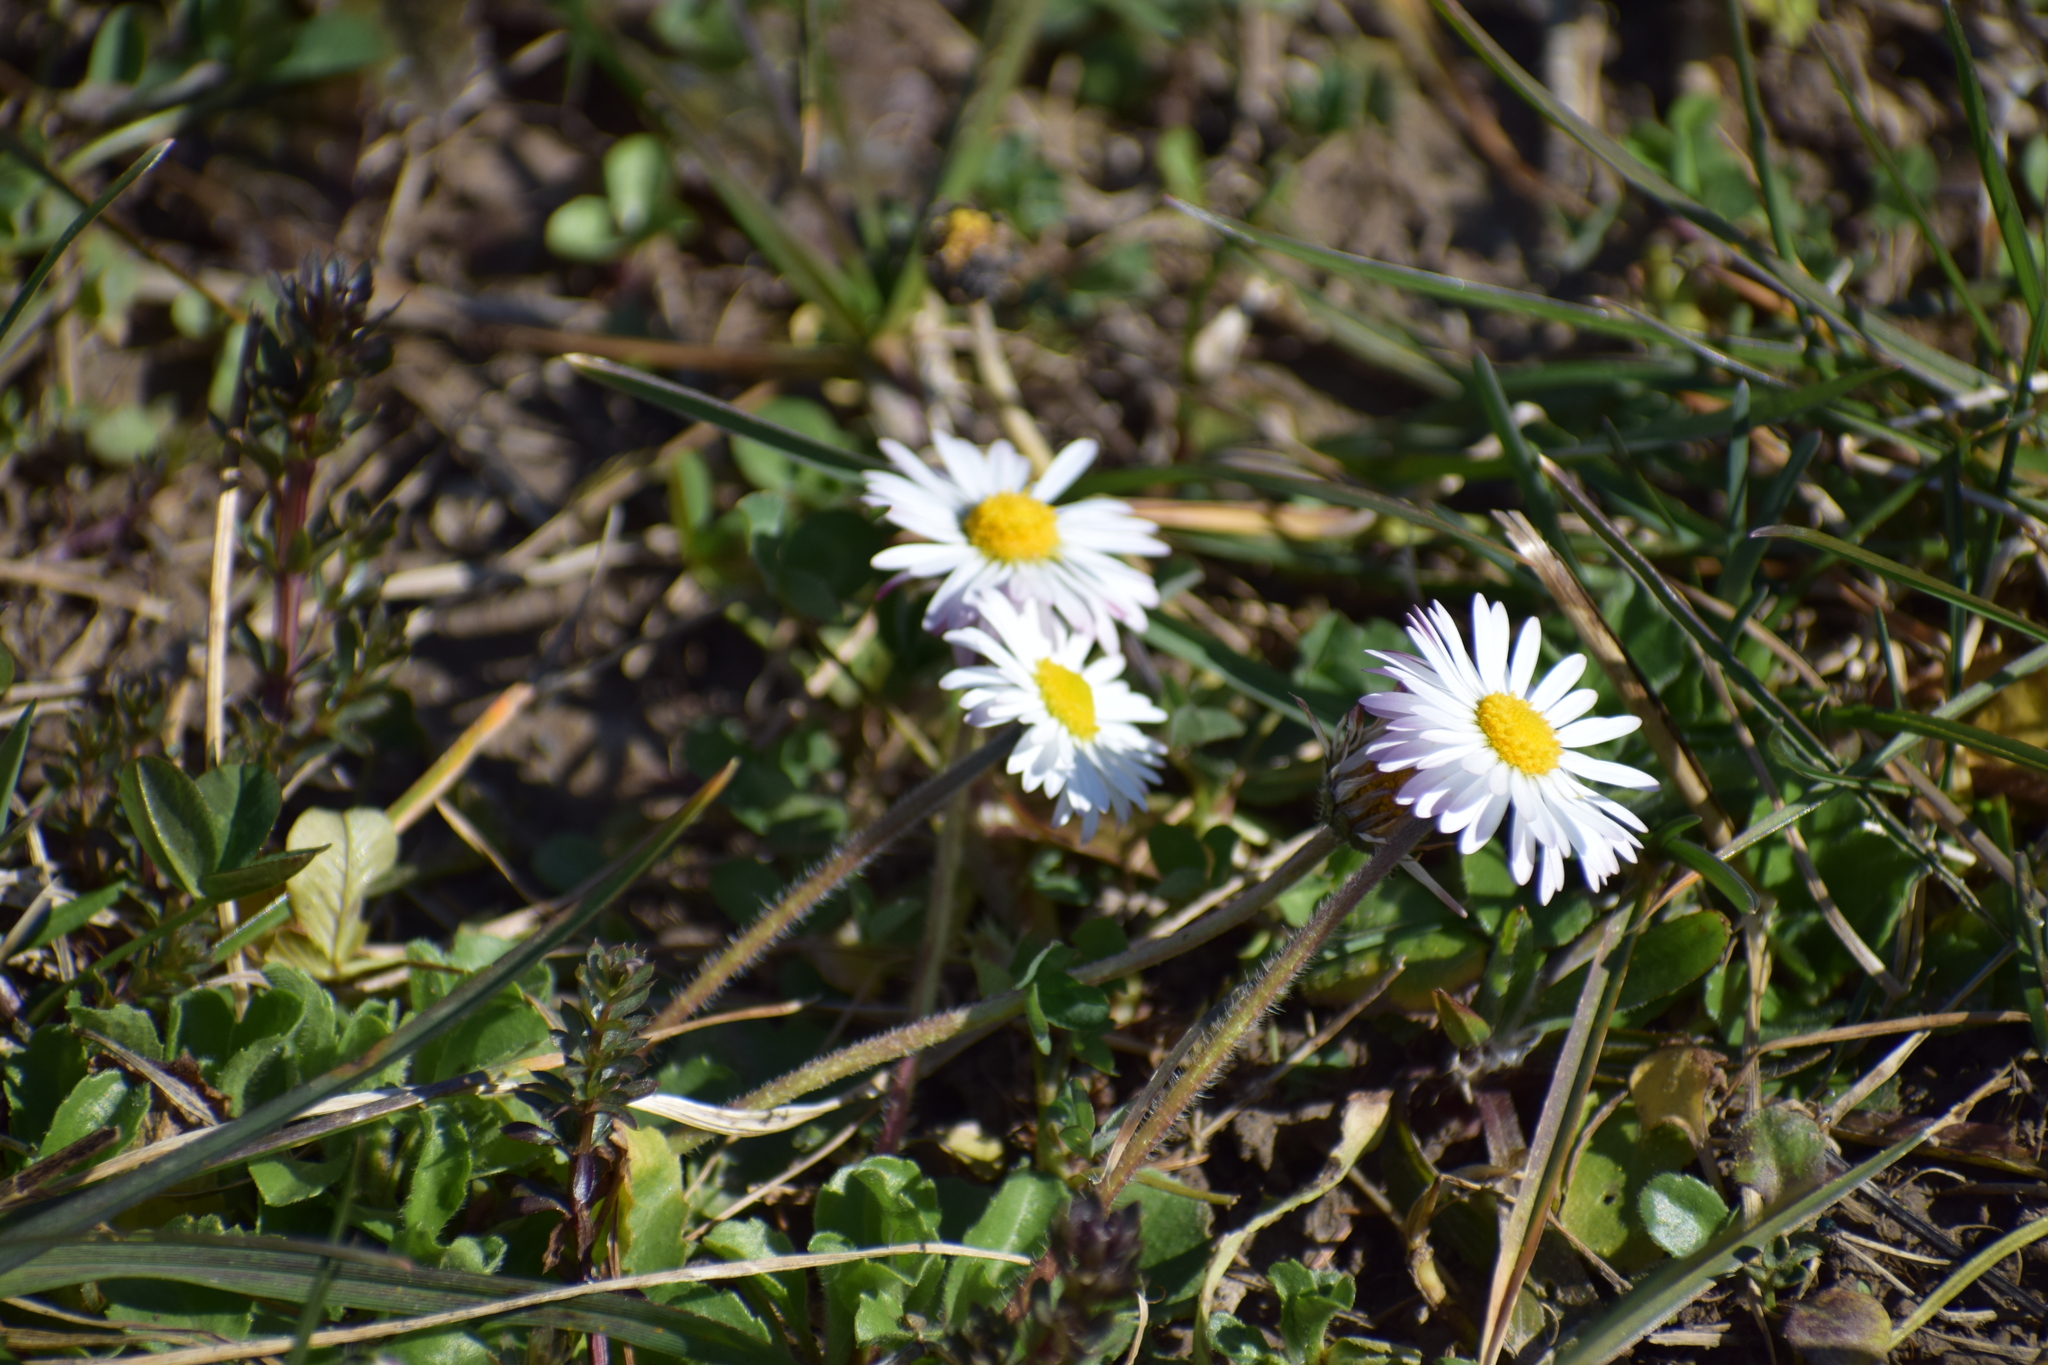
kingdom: Plantae
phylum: Tracheophyta
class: Magnoliopsida
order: Asterales
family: Asteraceae
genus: Bellis
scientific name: Bellis perennis
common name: Lawndaisy
